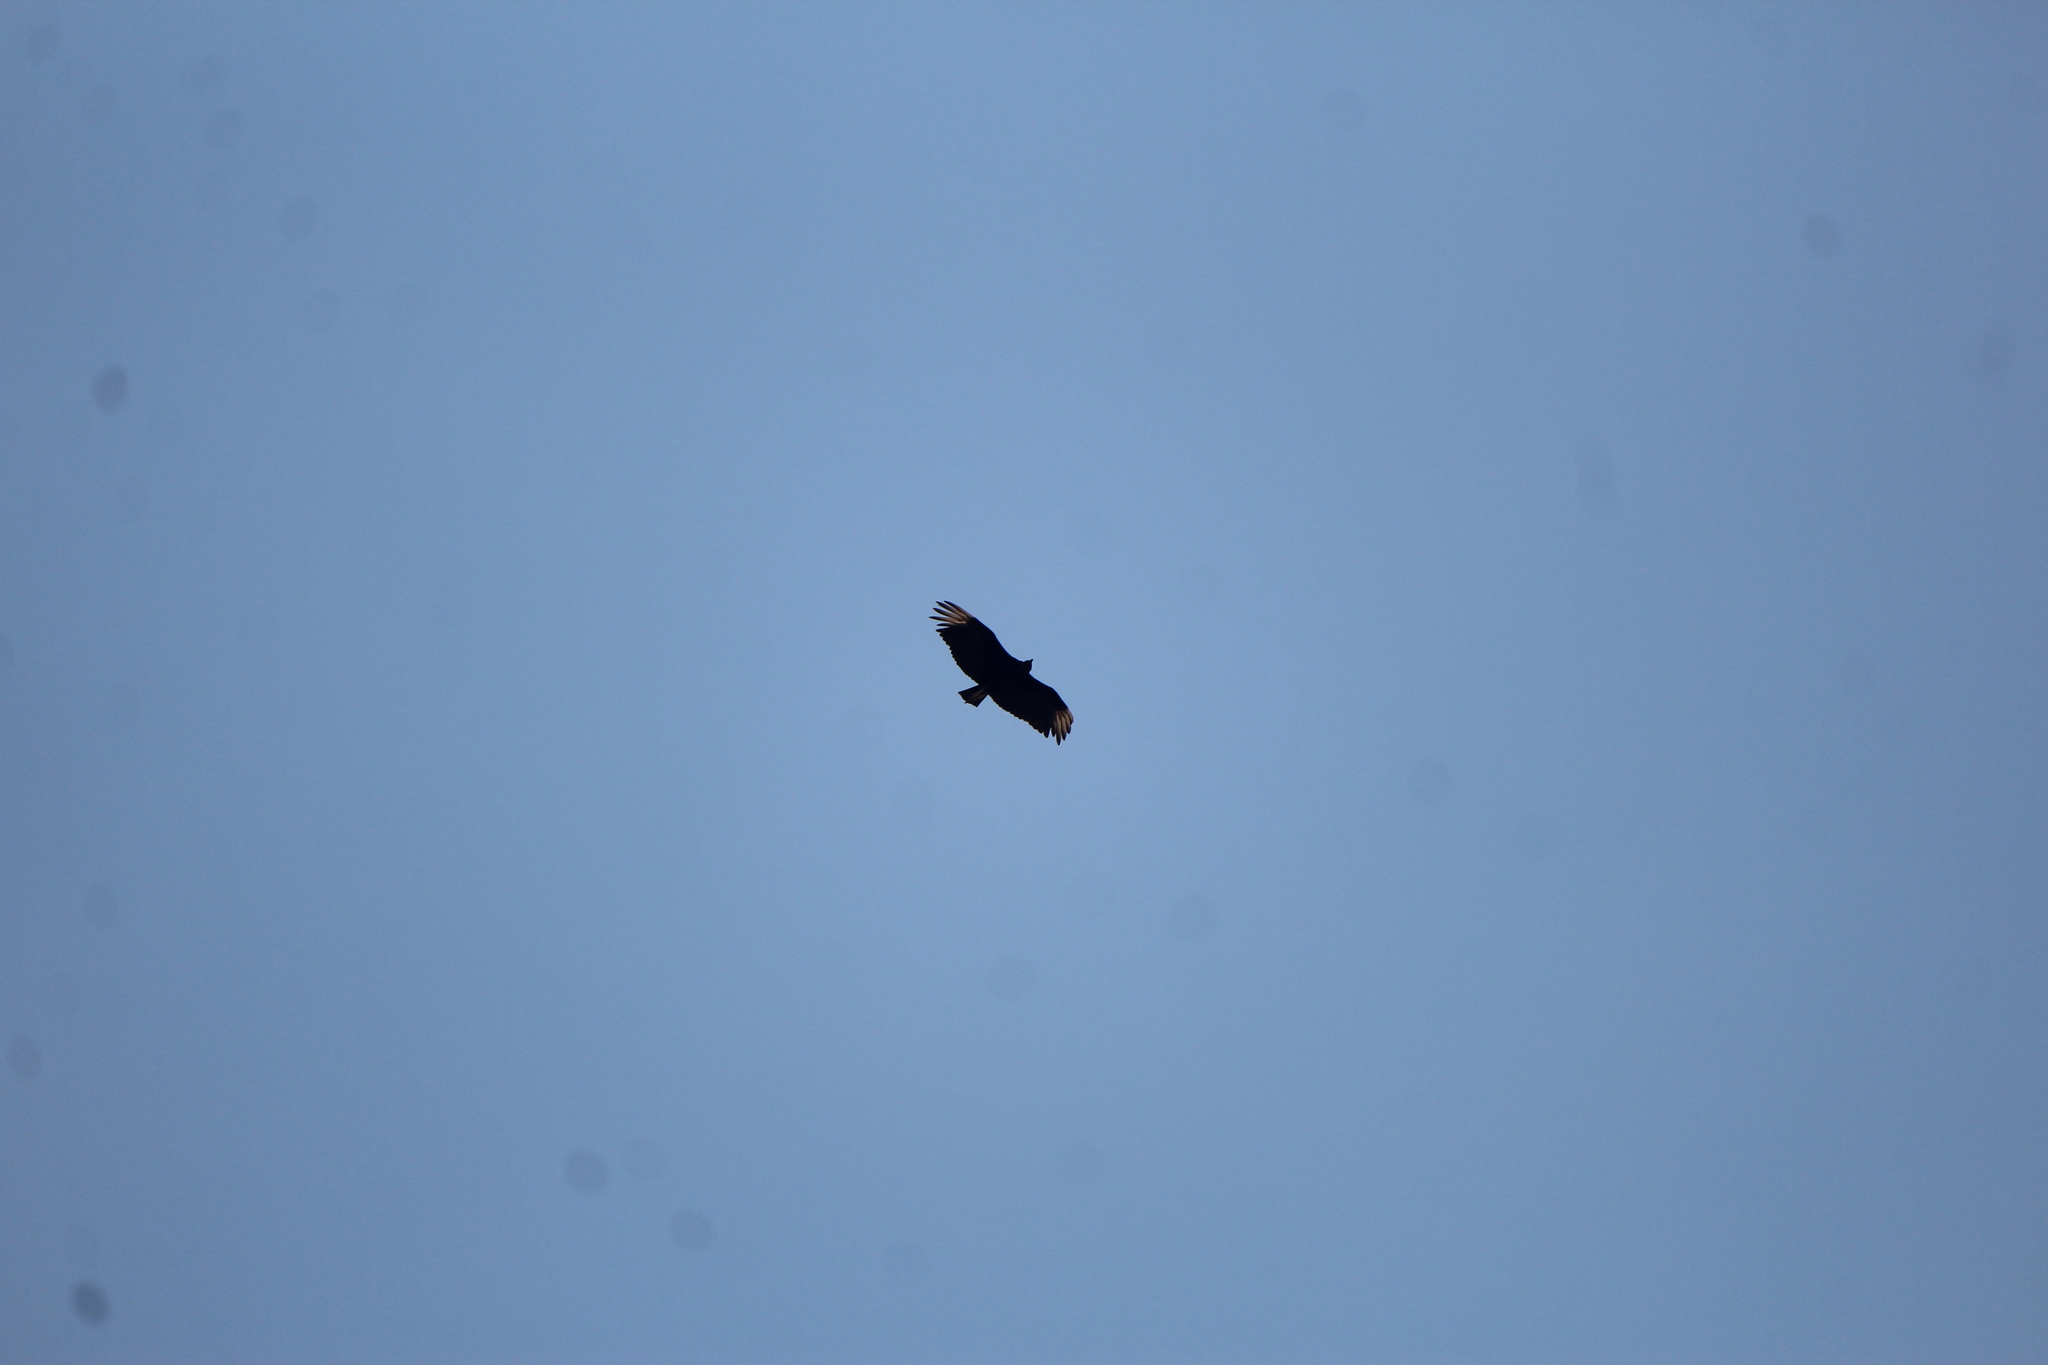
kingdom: Animalia
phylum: Chordata
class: Aves
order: Accipitriformes
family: Cathartidae
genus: Coragyps
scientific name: Coragyps atratus
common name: Black vulture
